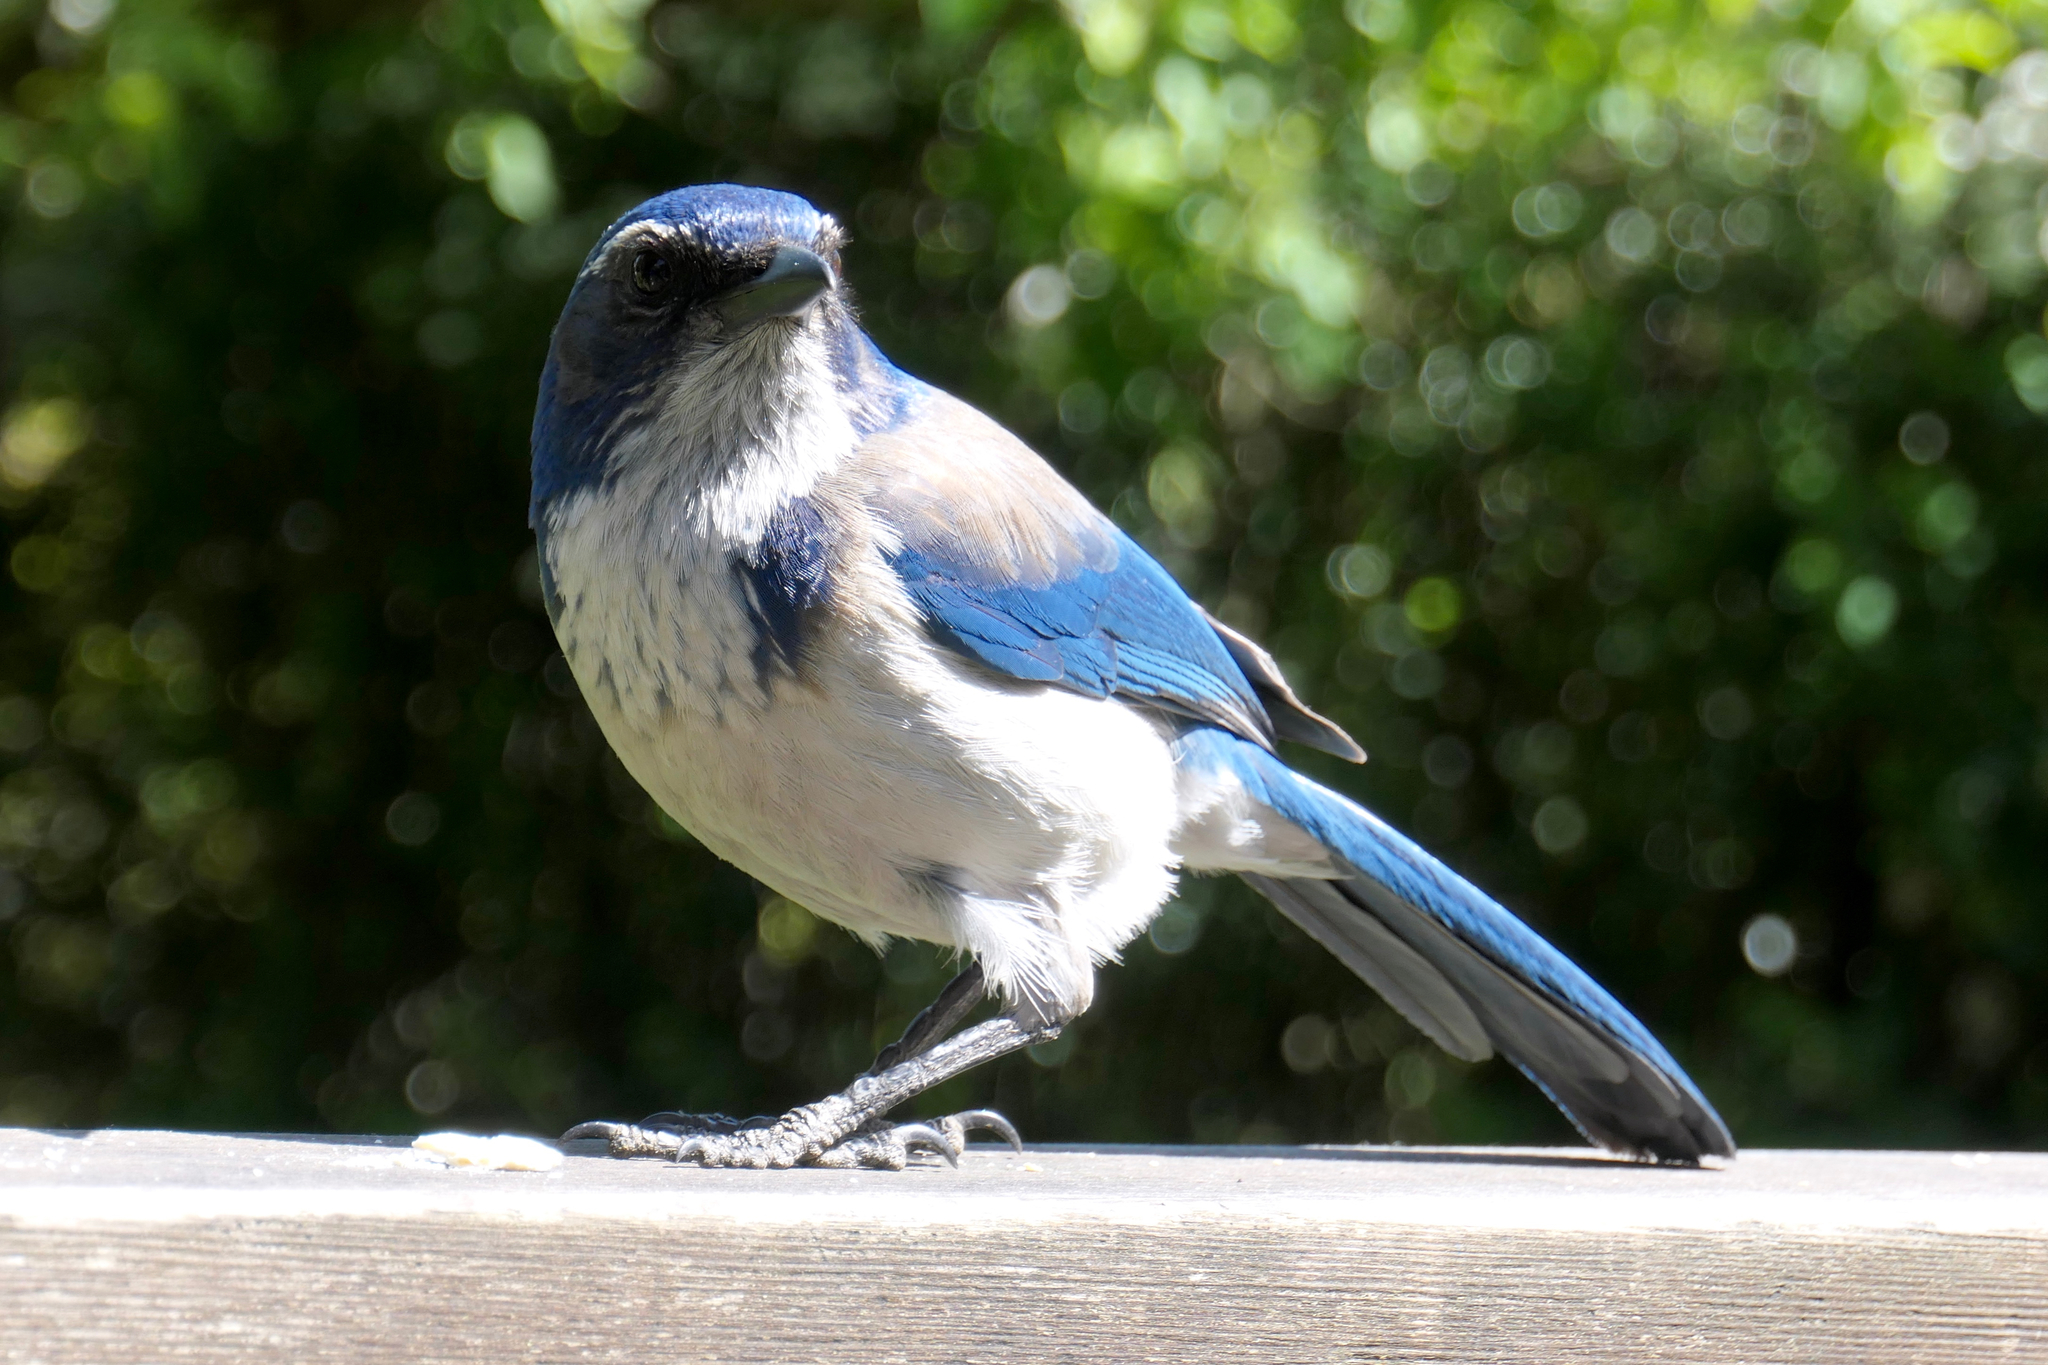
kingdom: Animalia
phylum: Chordata
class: Aves
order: Passeriformes
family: Corvidae
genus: Aphelocoma
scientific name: Aphelocoma californica
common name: California scrub-jay
